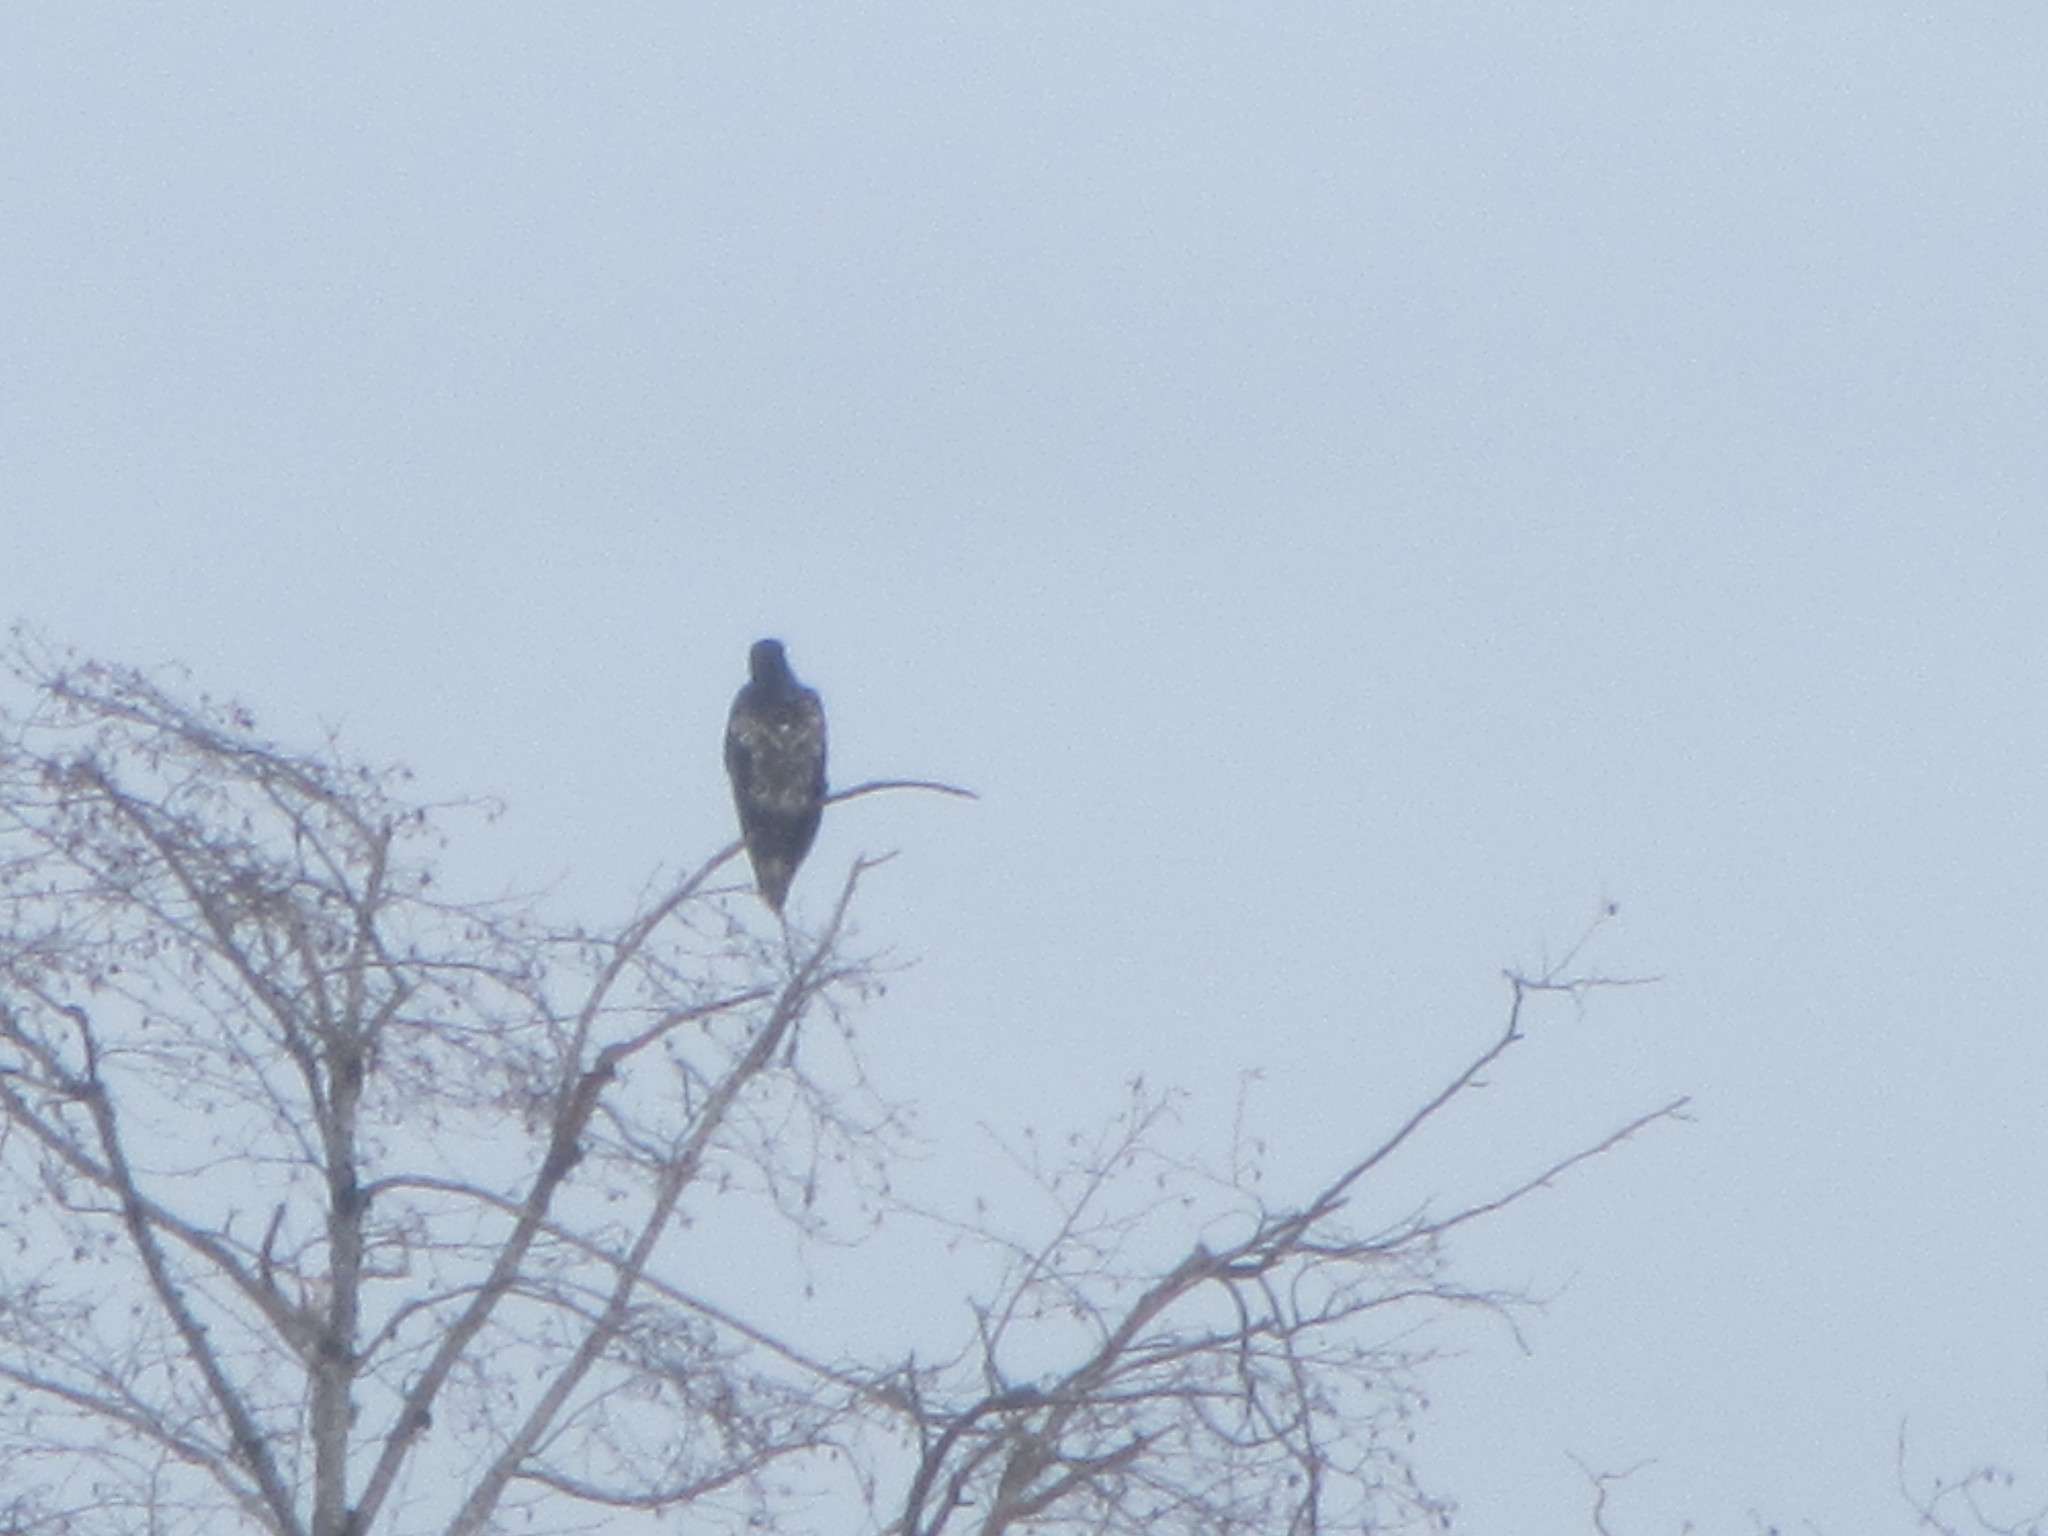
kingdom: Animalia
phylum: Chordata
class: Aves
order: Accipitriformes
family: Accipitridae
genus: Haliaeetus
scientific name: Haliaeetus leucocephalus
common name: Bald eagle
